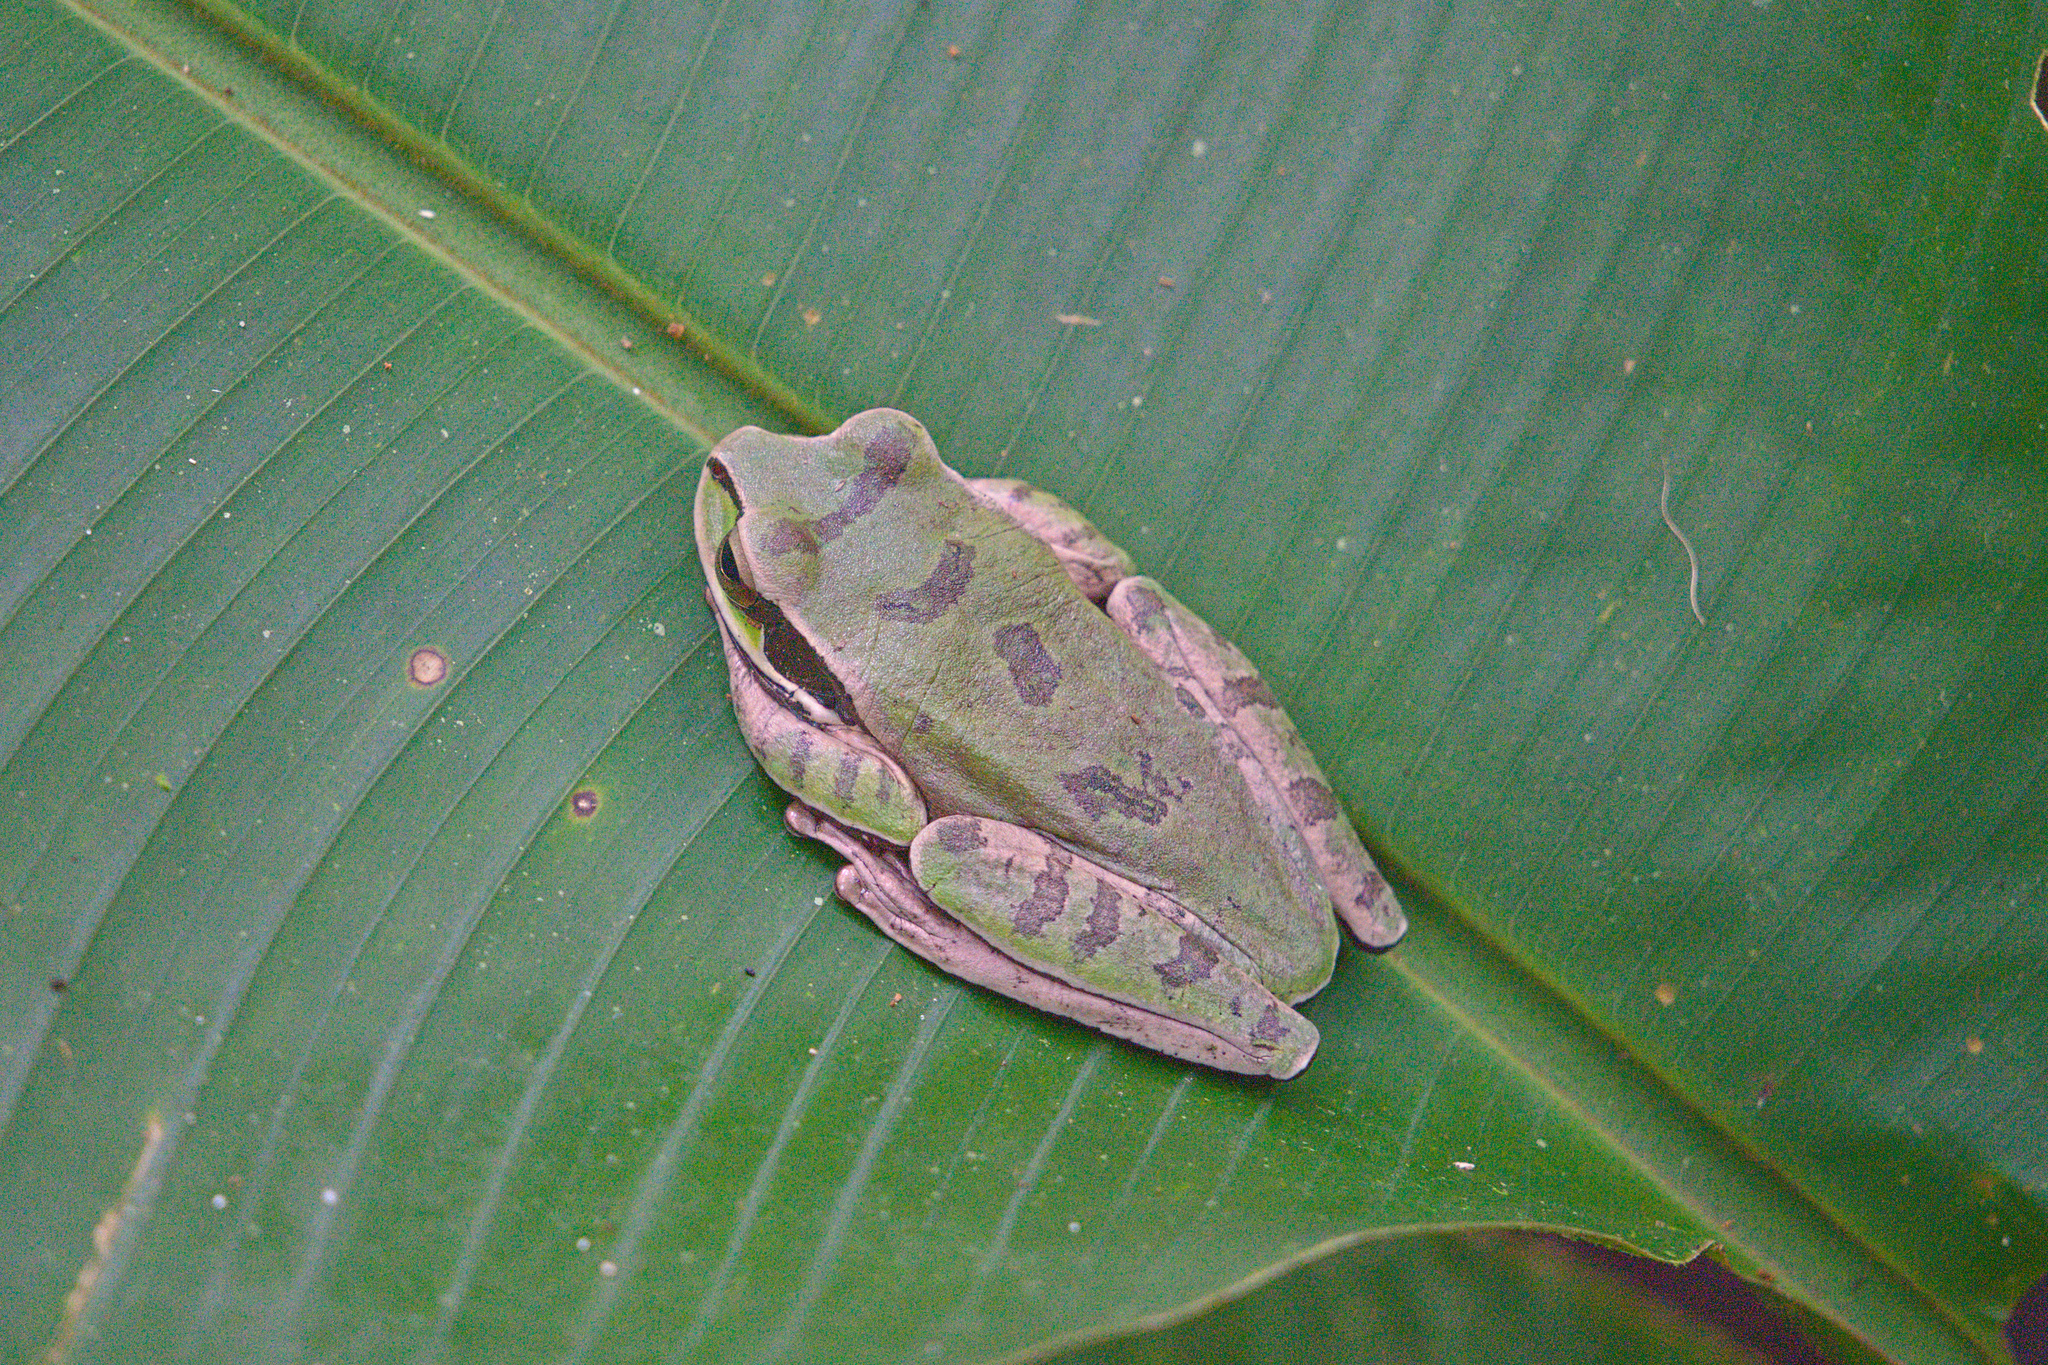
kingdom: Animalia
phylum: Chordata
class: Amphibia
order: Anura
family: Hylidae
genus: Smilisca
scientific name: Smilisca phaeota
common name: Central american smilisca
